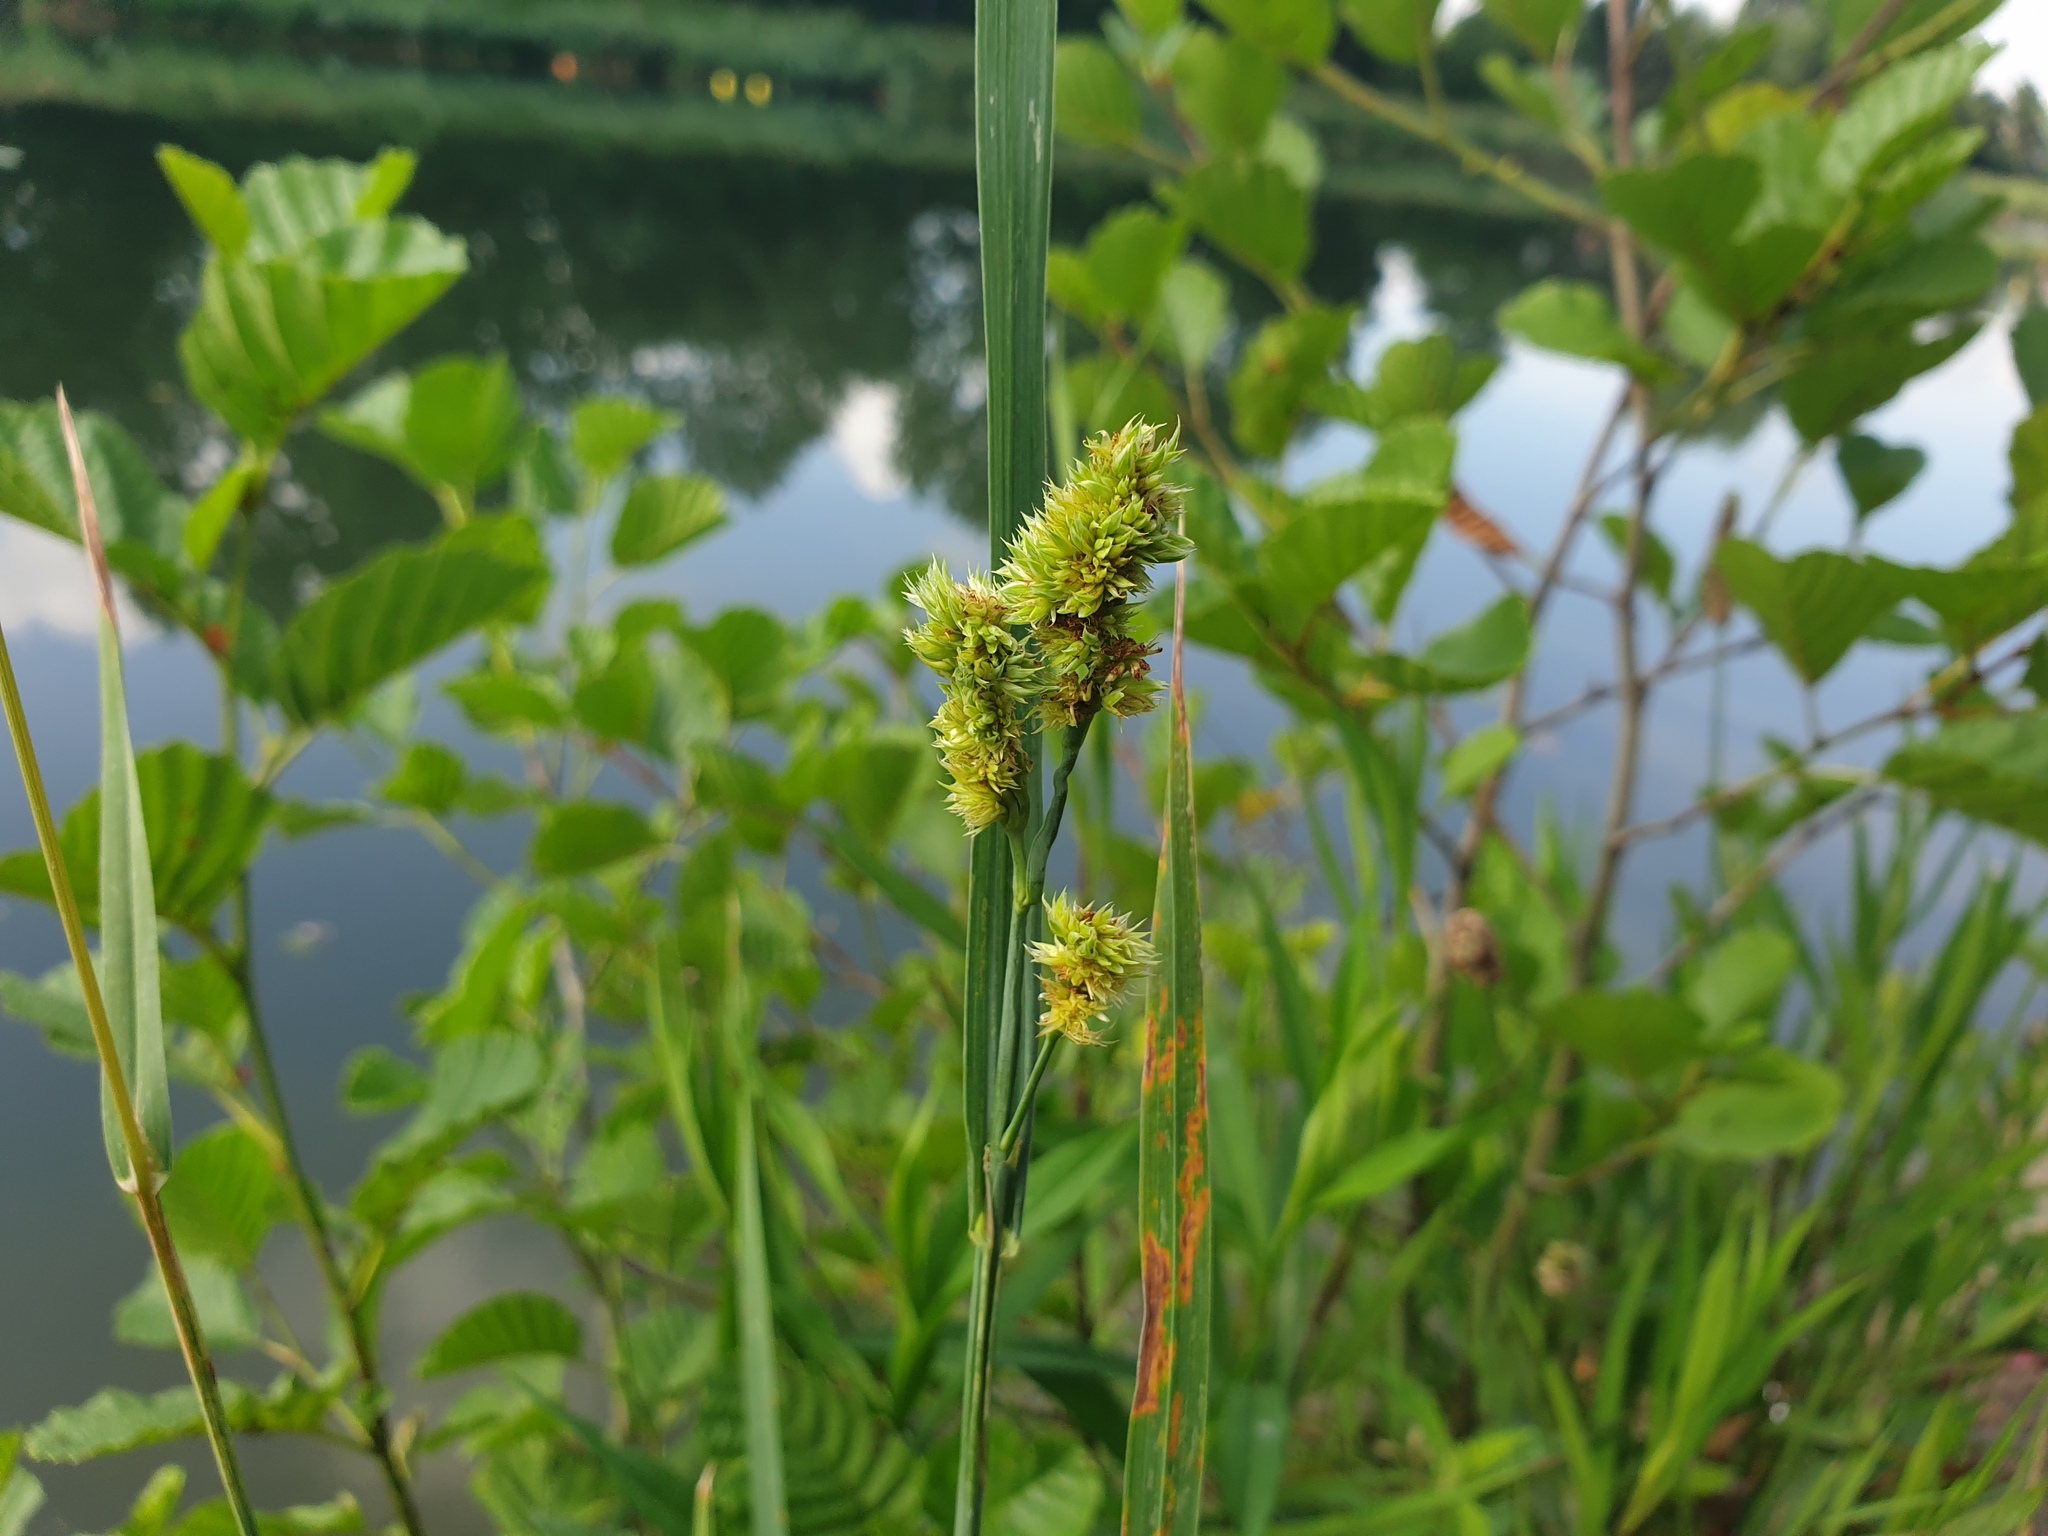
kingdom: Plantae
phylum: Tracheophyta
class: Liliopsida
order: Poales
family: Poaceae
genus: Dactylis
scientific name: Dactylis glomerata
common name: Orchardgrass
